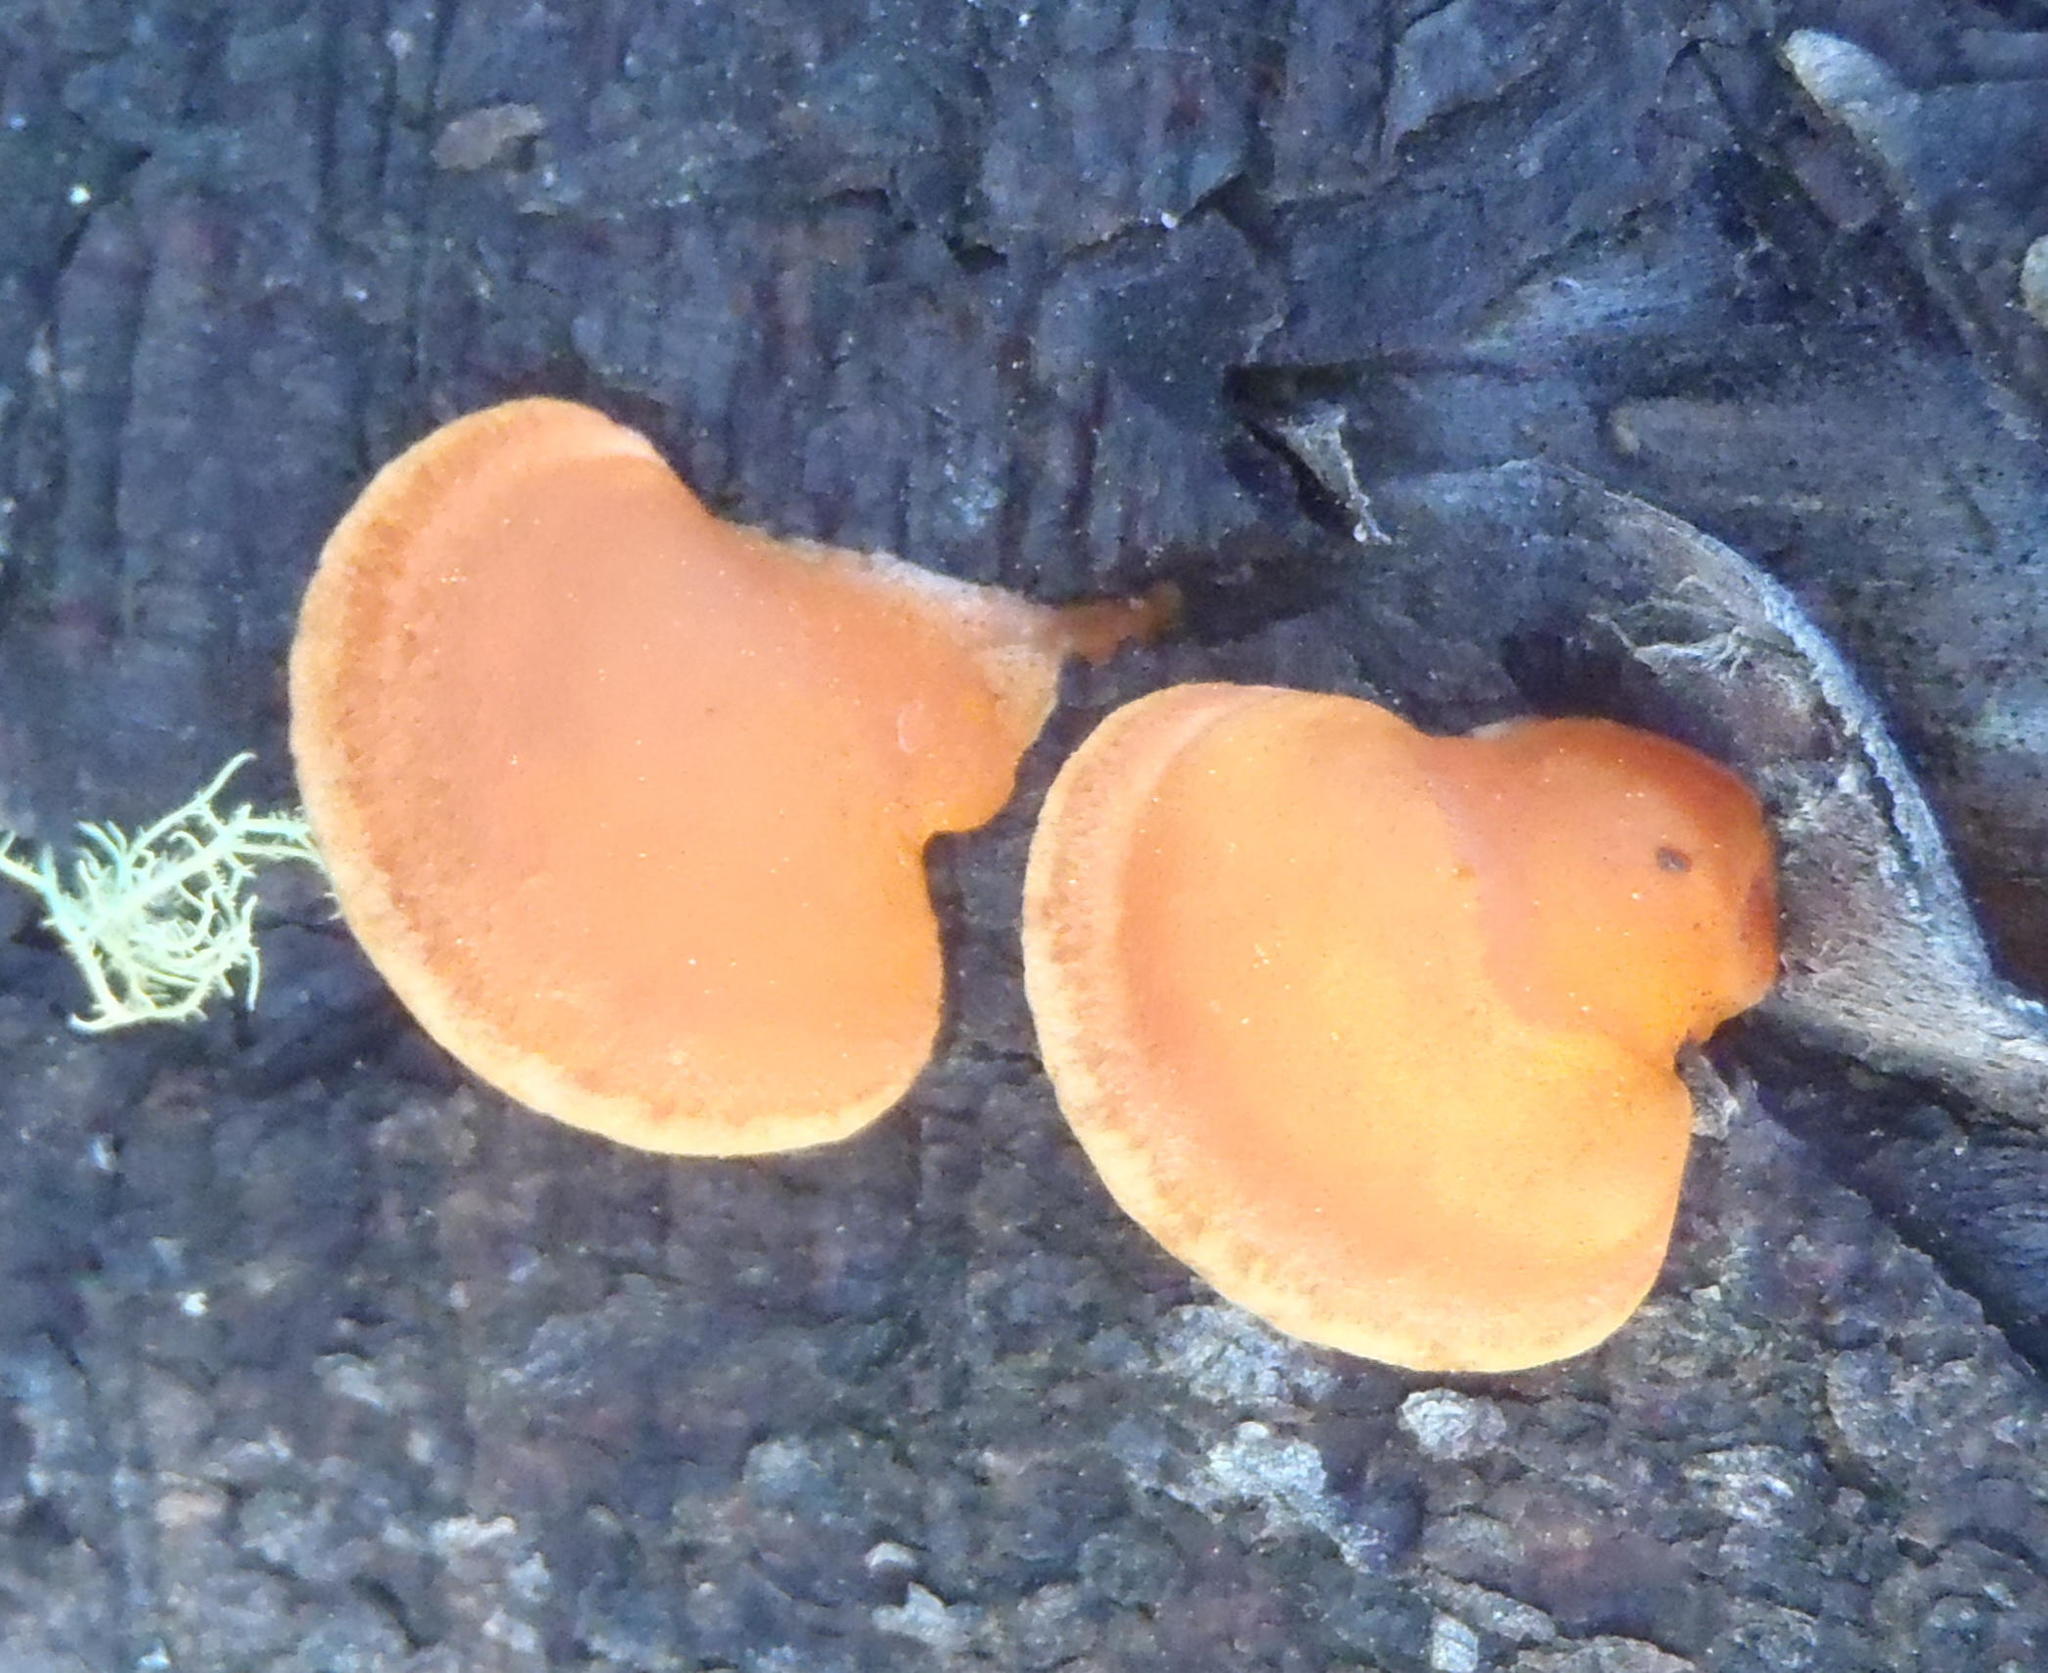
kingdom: Fungi
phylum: Basidiomycota
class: Agaricomycetes
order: Polyporales
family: Polyporaceae
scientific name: Polyporaceae
